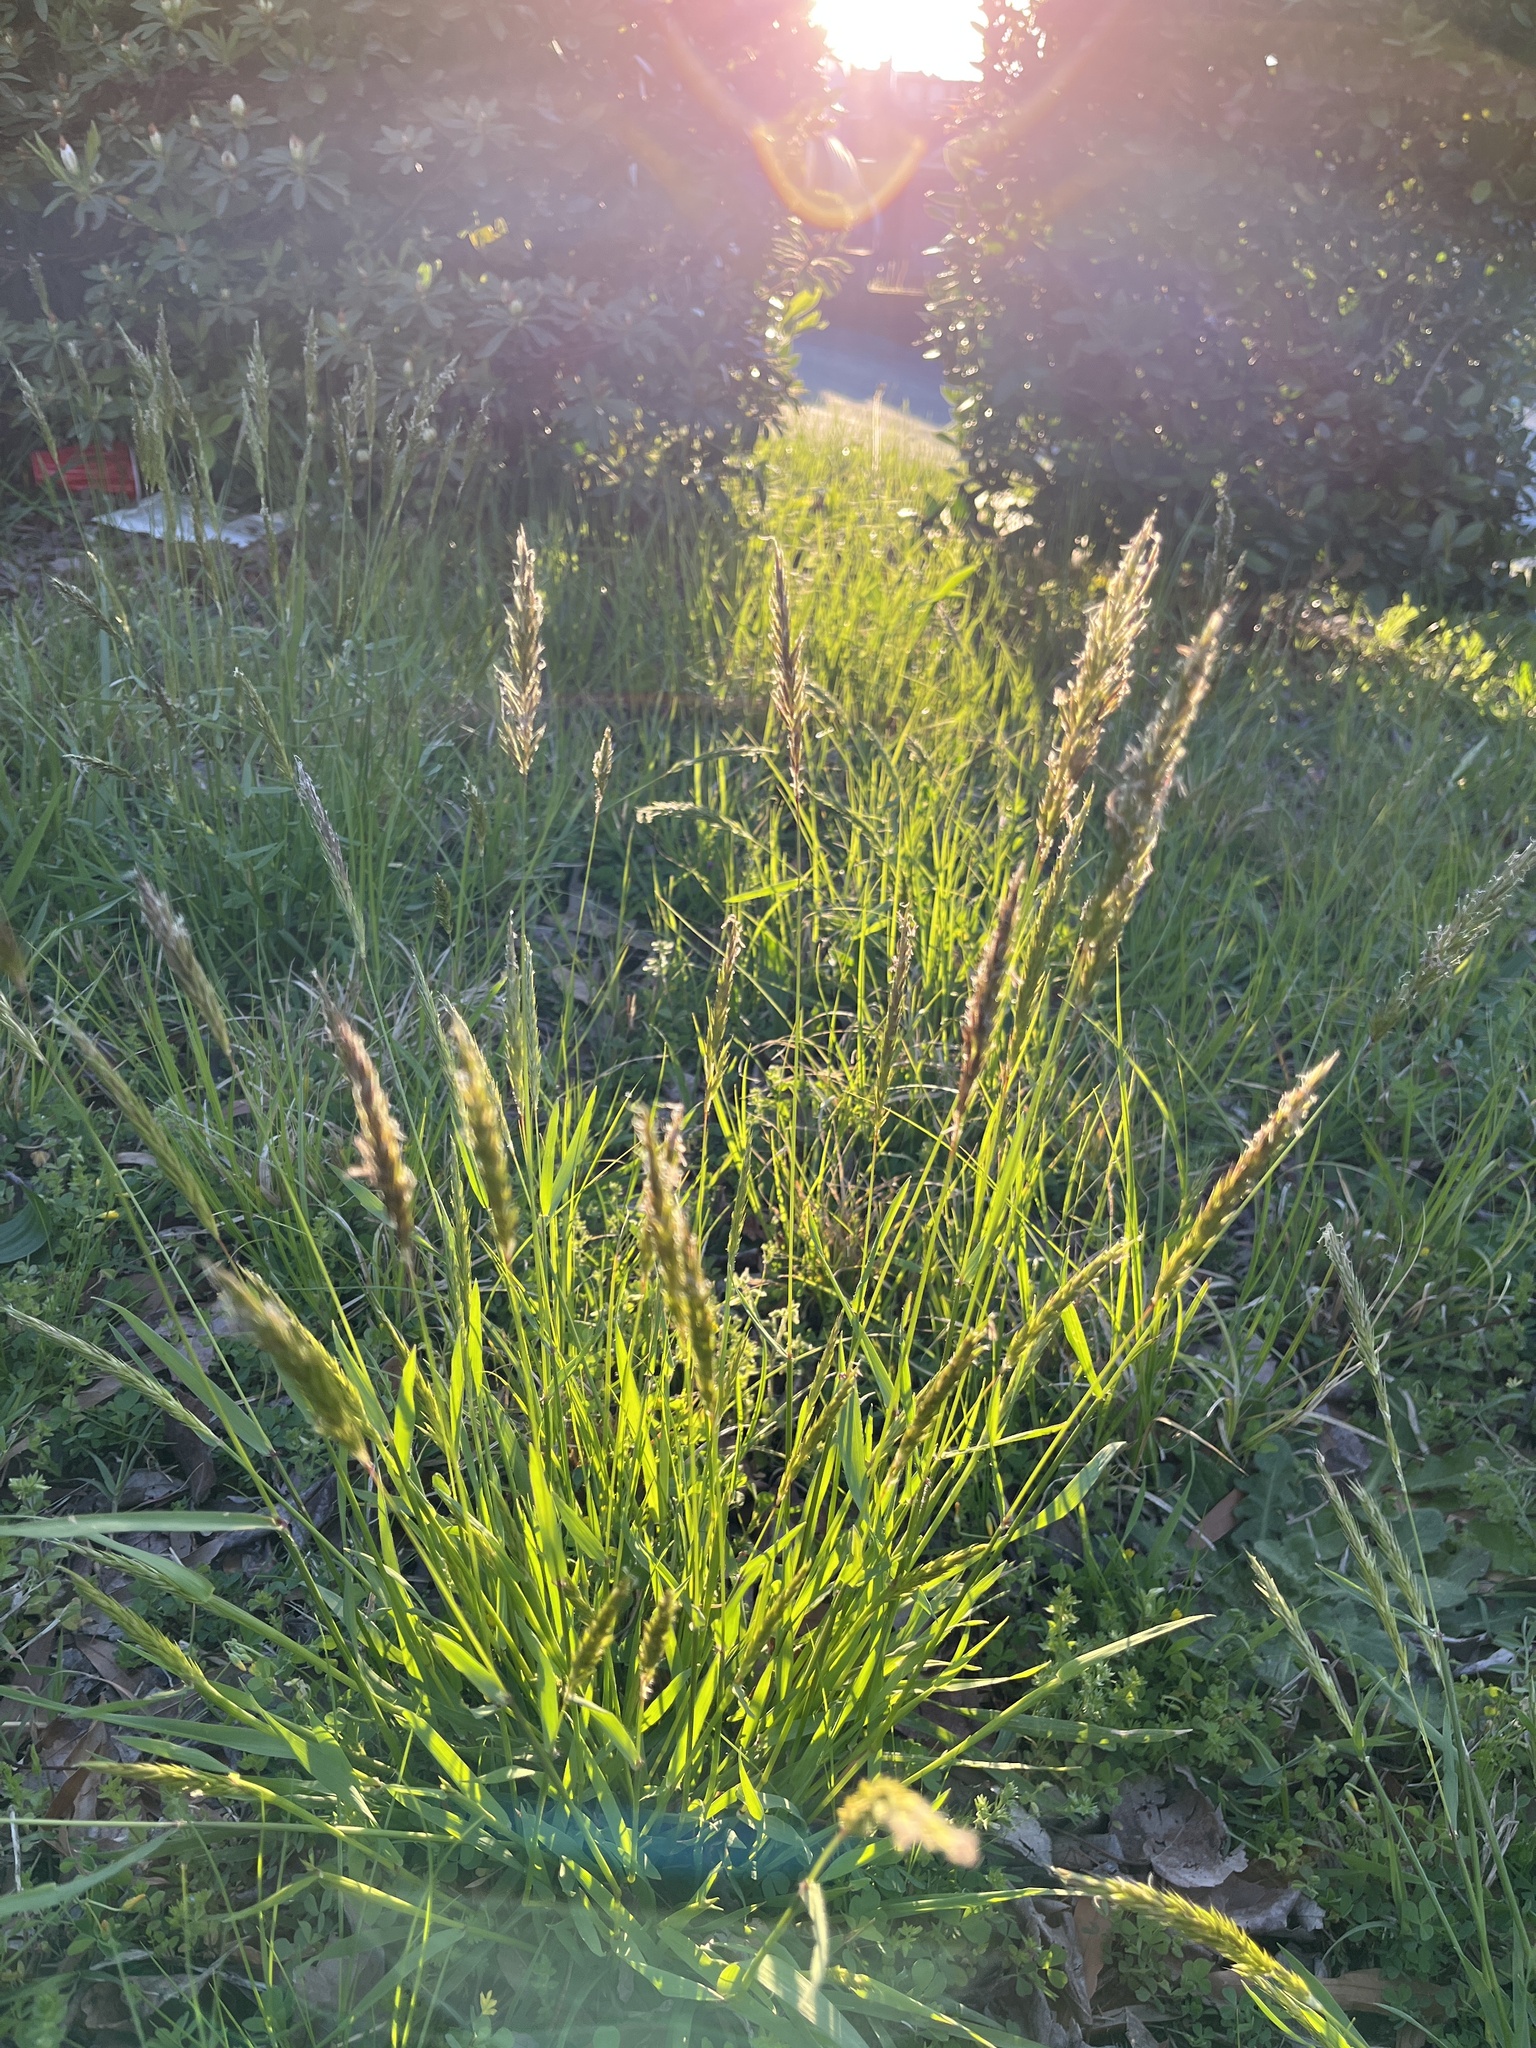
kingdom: Plantae
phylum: Tracheophyta
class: Liliopsida
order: Poales
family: Poaceae
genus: Anthoxanthum
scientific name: Anthoxanthum odoratum
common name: Sweet vernalgrass
